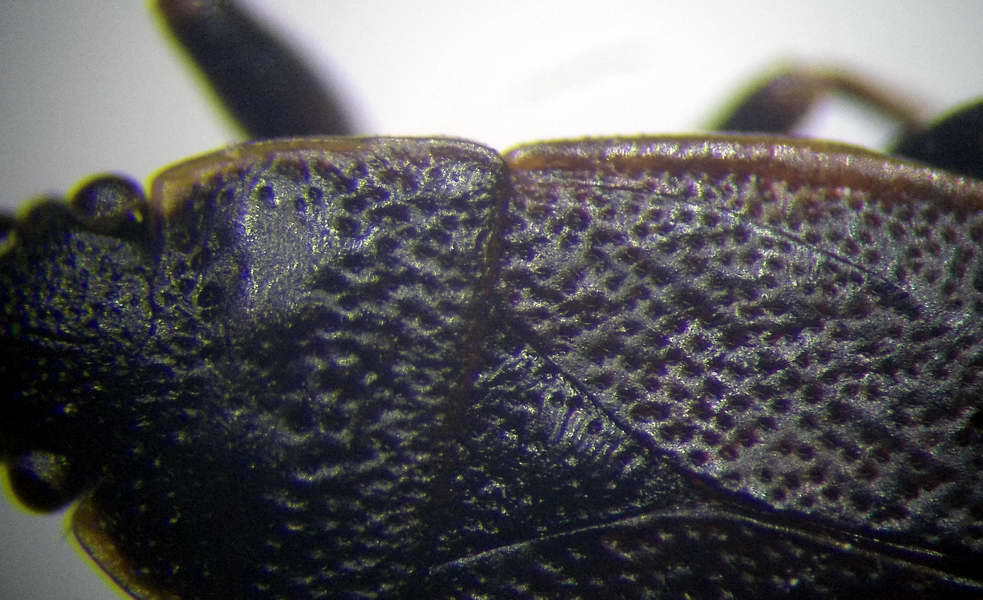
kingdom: Animalia
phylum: Arthropoda
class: Insecta
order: Hemiptera
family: Pyrrhocoridae
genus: Pyrrhocoris
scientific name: Pyrrhocoris marginatus
